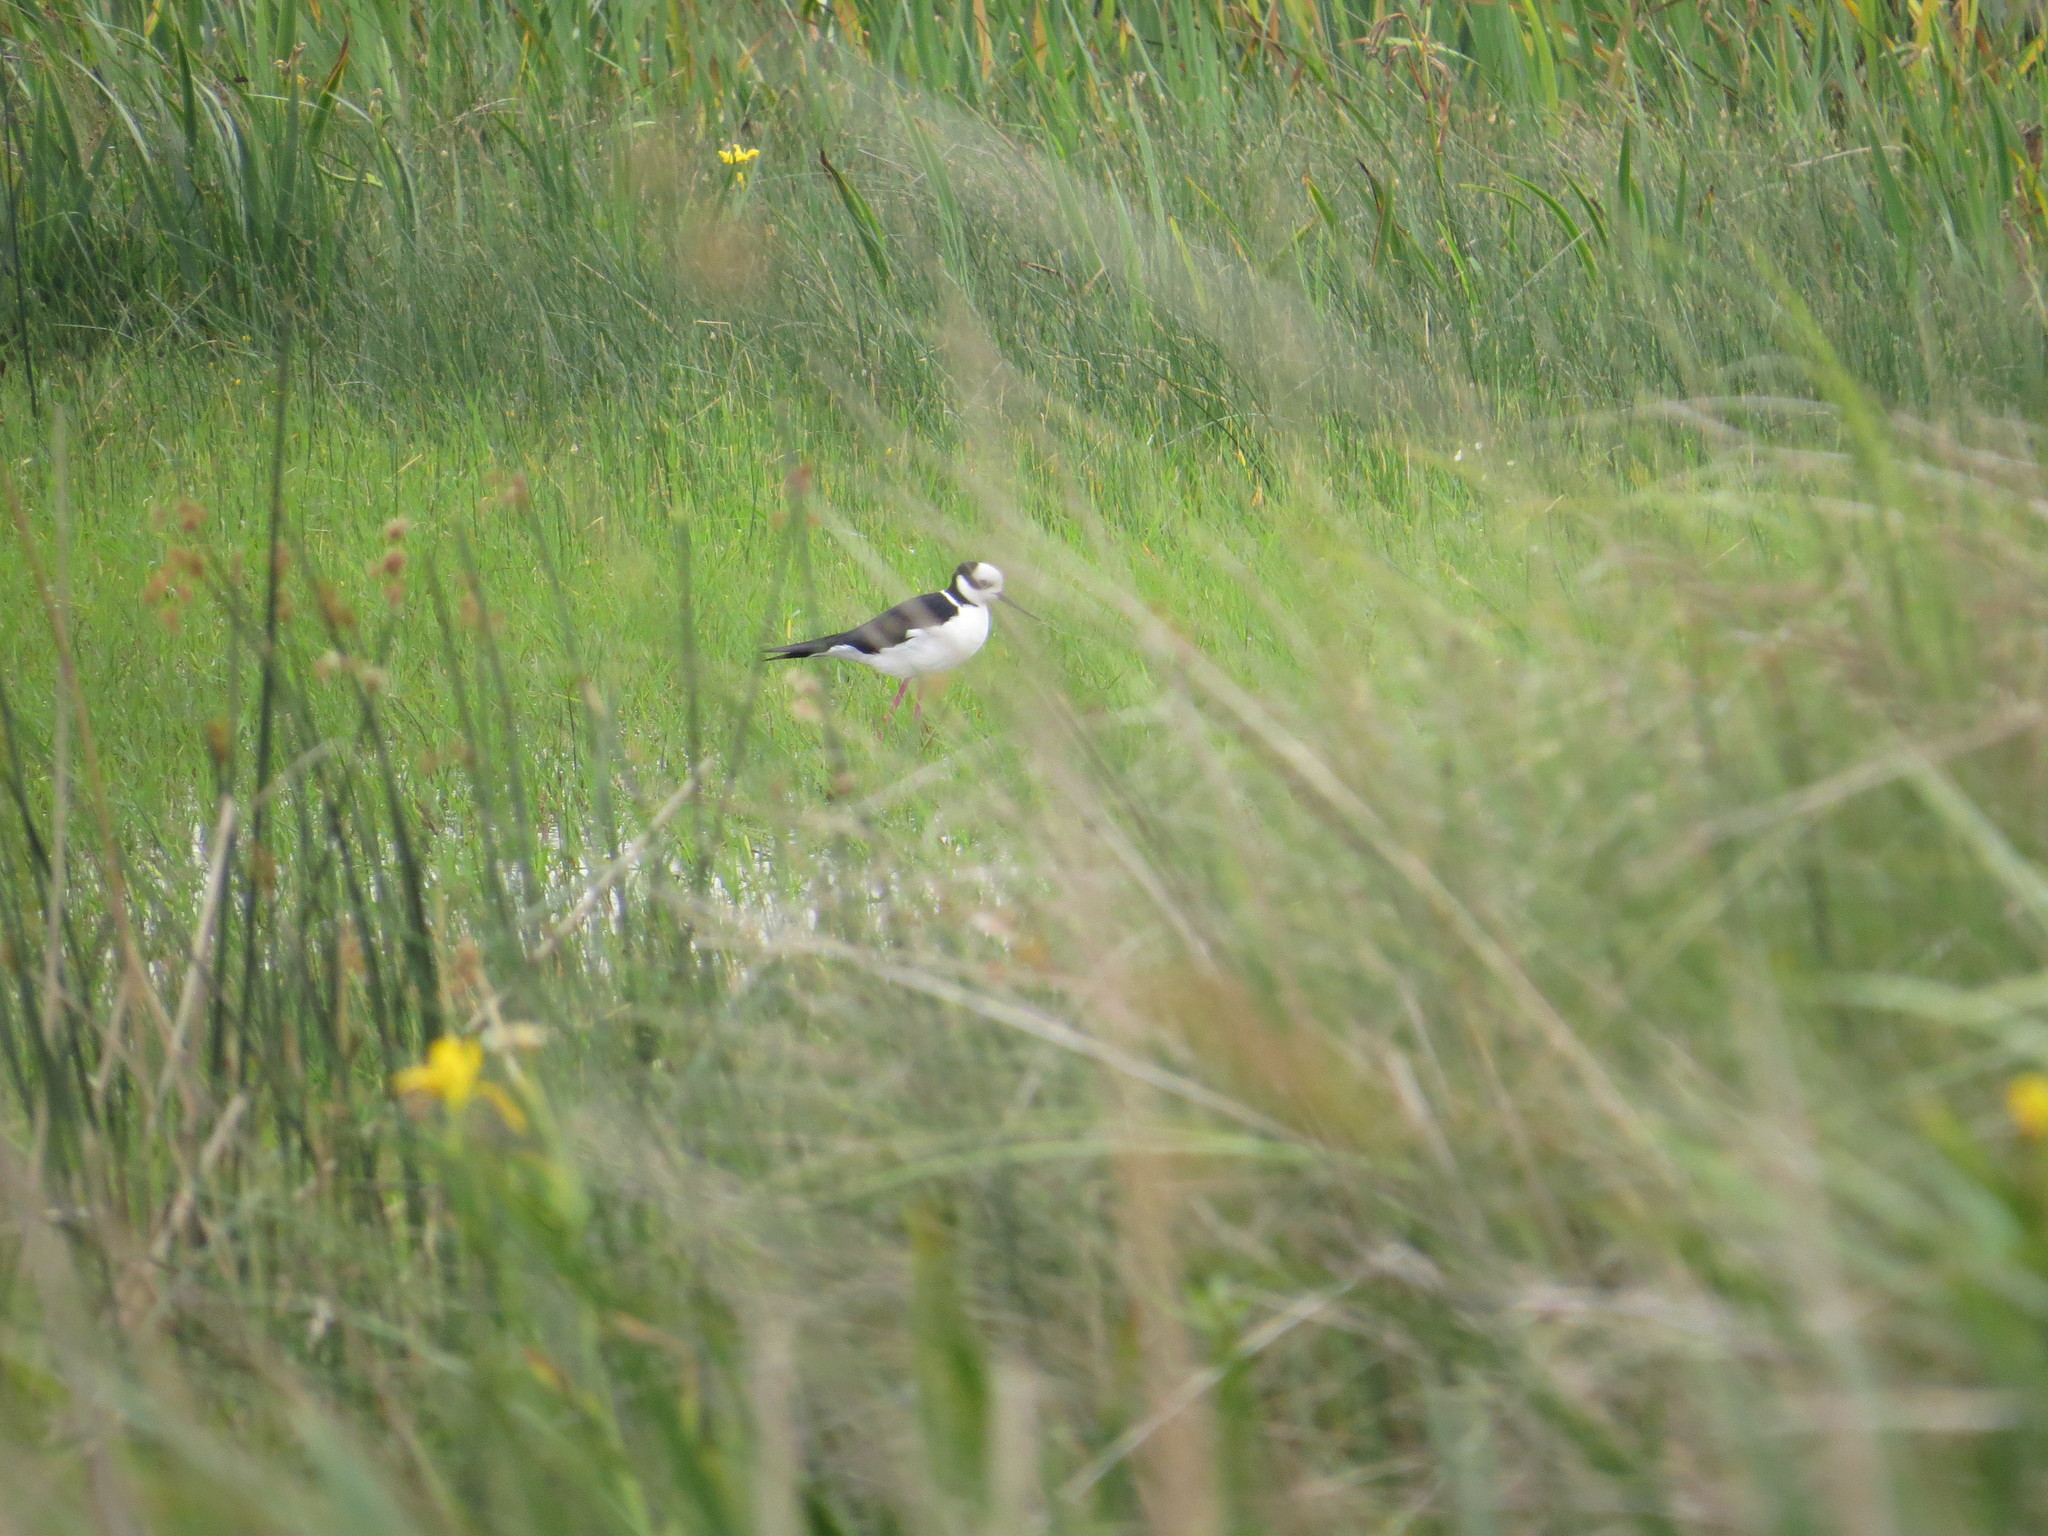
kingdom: Animalia
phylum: Chordata
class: Aves
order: Charadriiformes
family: Recurvirostridae
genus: Himantopus
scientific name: Himantopus mexicanus
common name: Black-necked stilt
